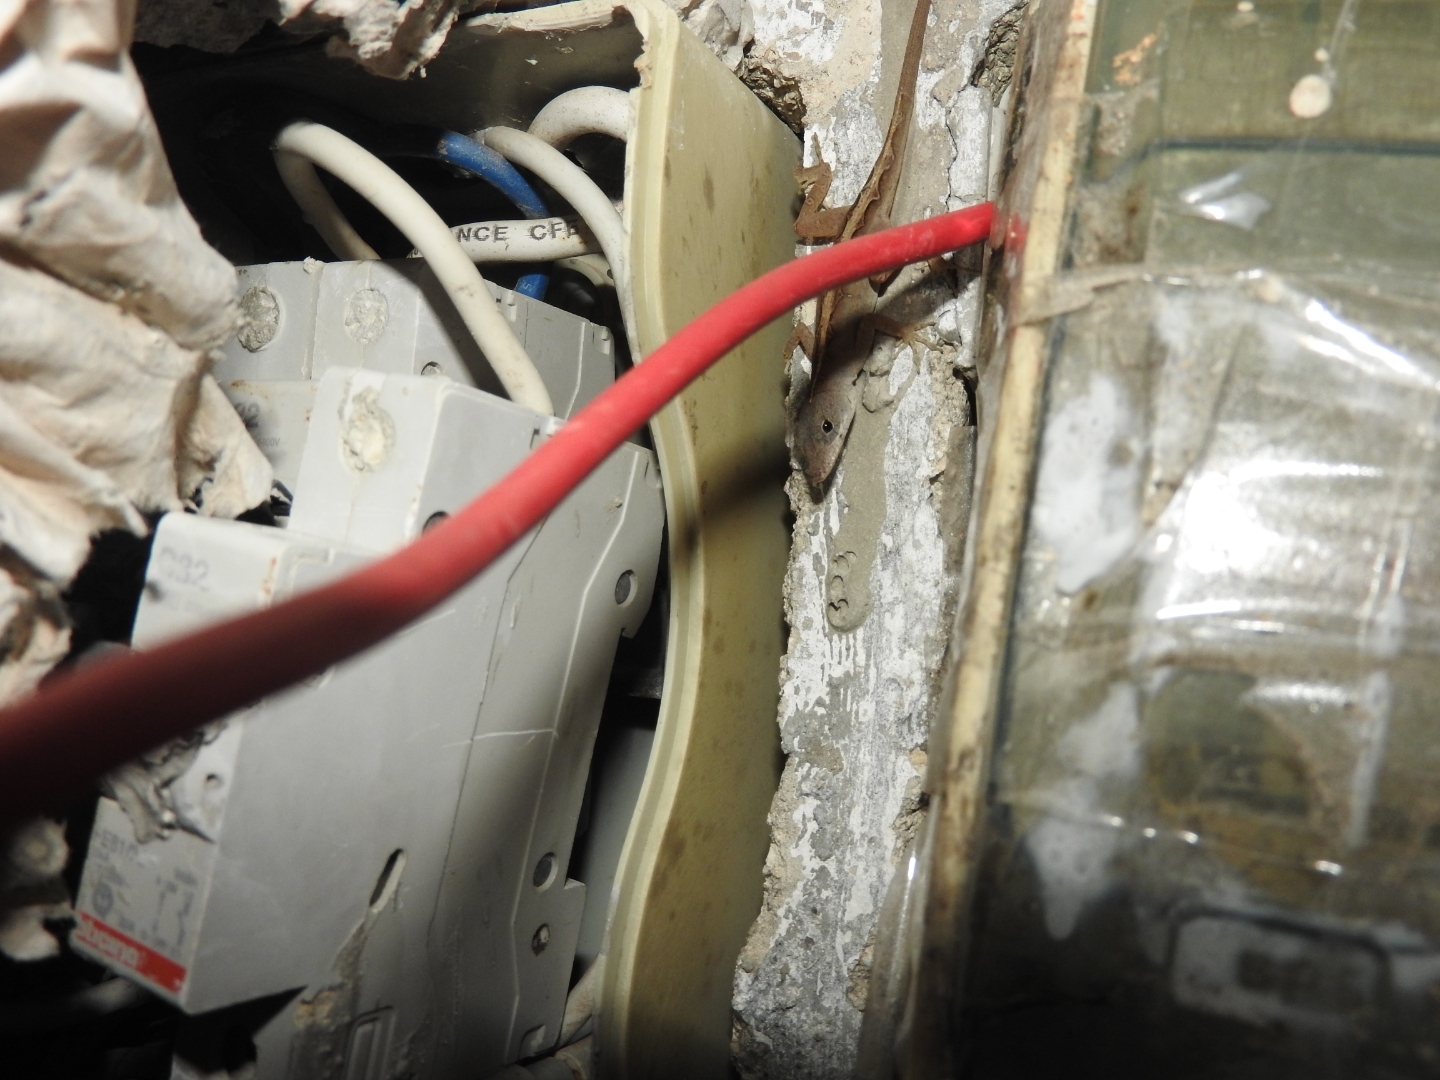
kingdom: Animalia
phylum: Chordata
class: Squamata
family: Dactyloidae
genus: Anolis
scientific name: Anolis sagrei
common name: Brown anole
